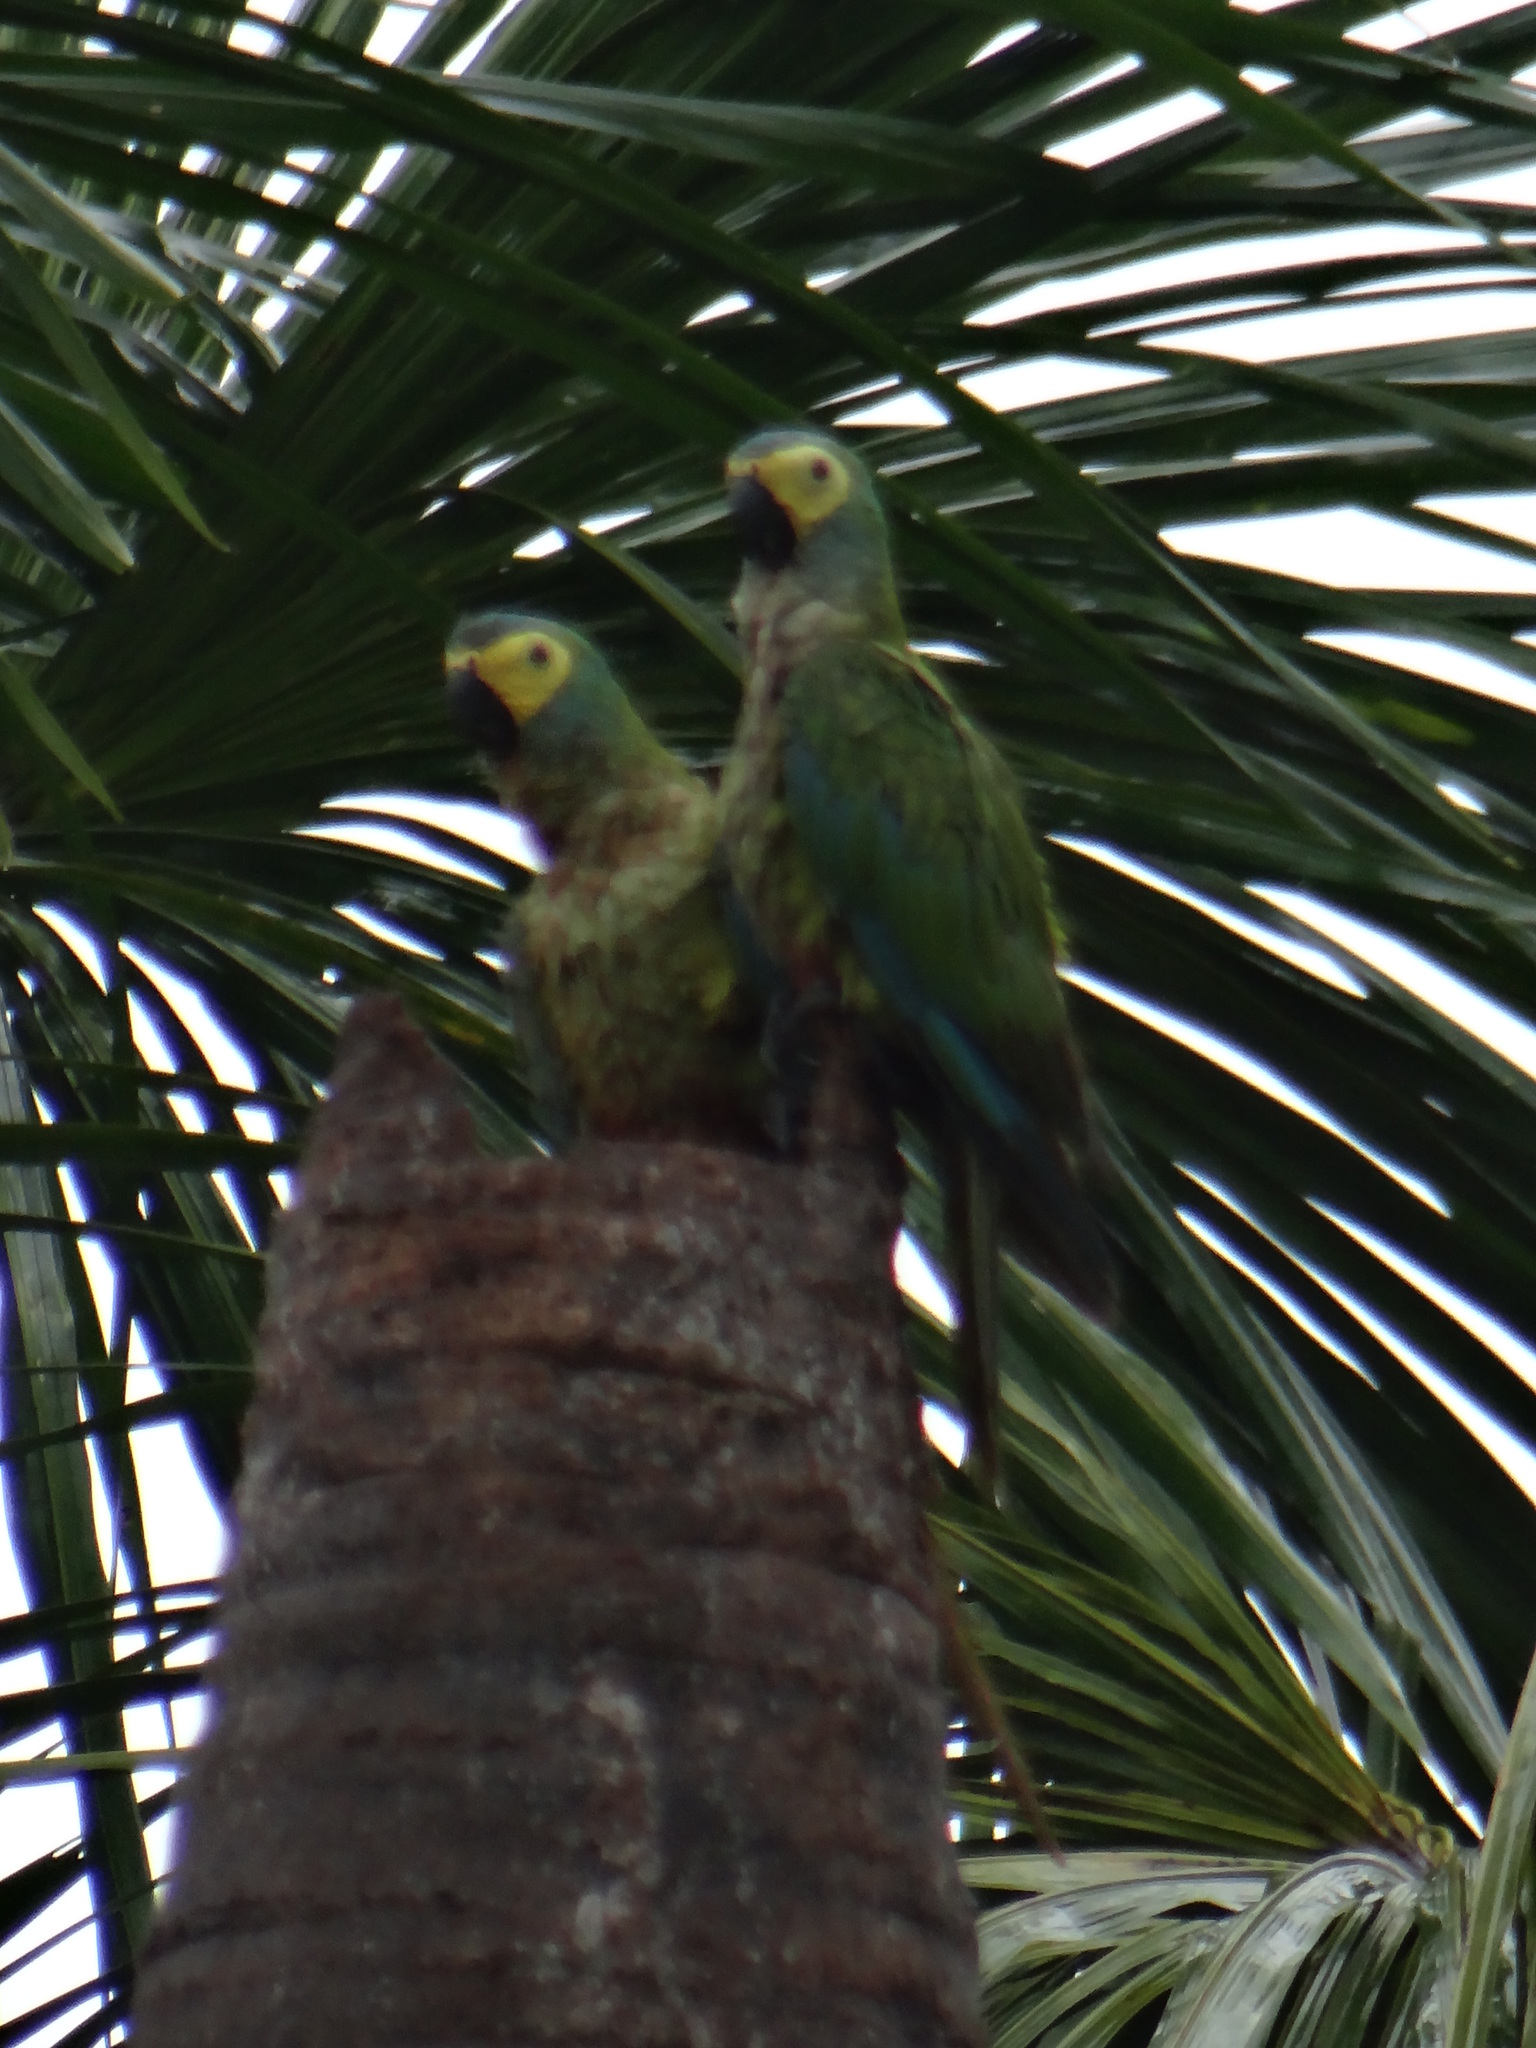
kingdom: Animalia
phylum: Chordata
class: Aves
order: Psittaciformes
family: Psittacidae
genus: Orthopsittaca
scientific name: Orthopsittaca manilata
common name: Red-bellied macaw
